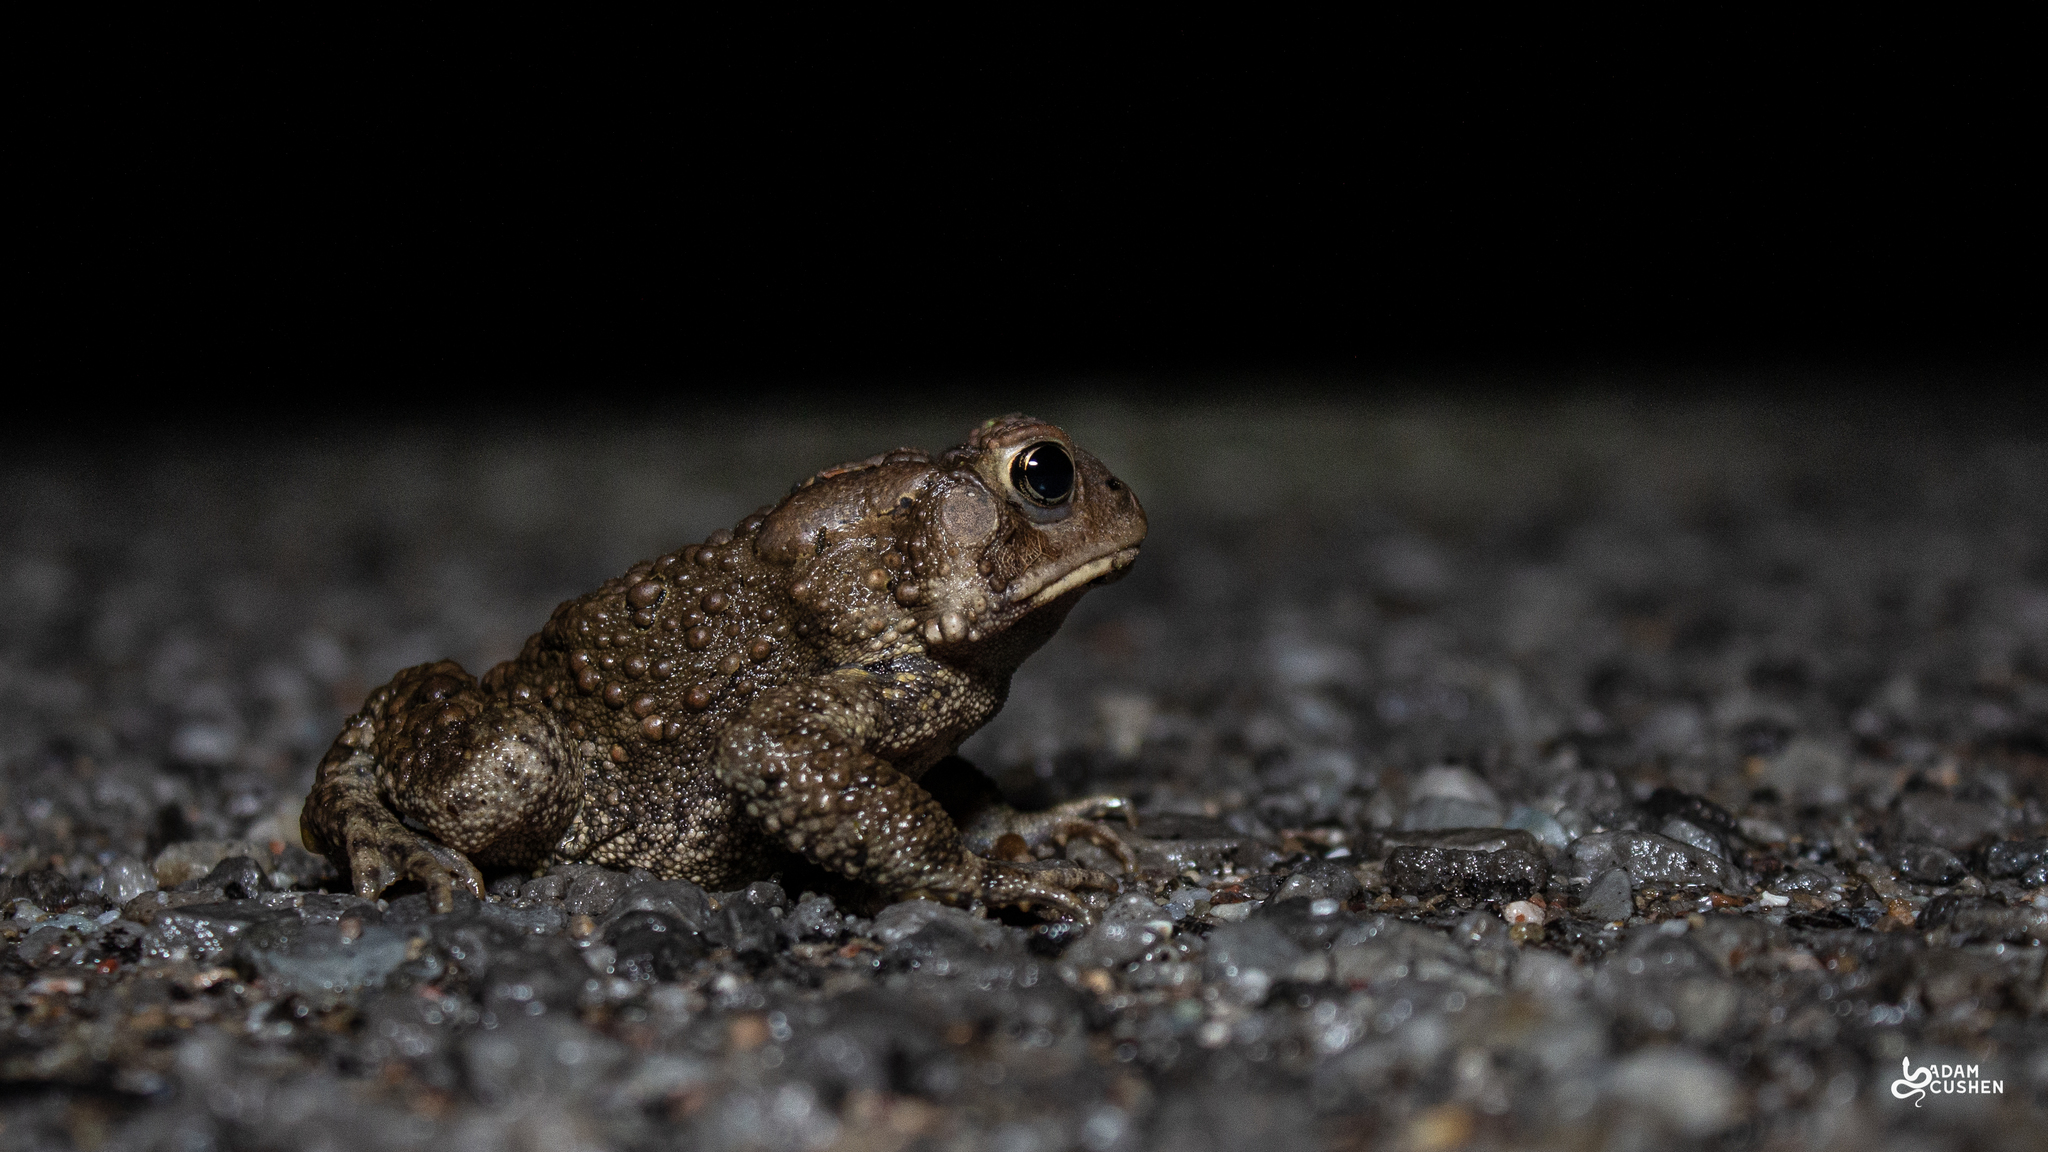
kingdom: Animalia
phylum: Chordata
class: Amphibia
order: Anura
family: Bufonidae
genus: Anaxyrus
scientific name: Anaxyrus americanus
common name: American toad
